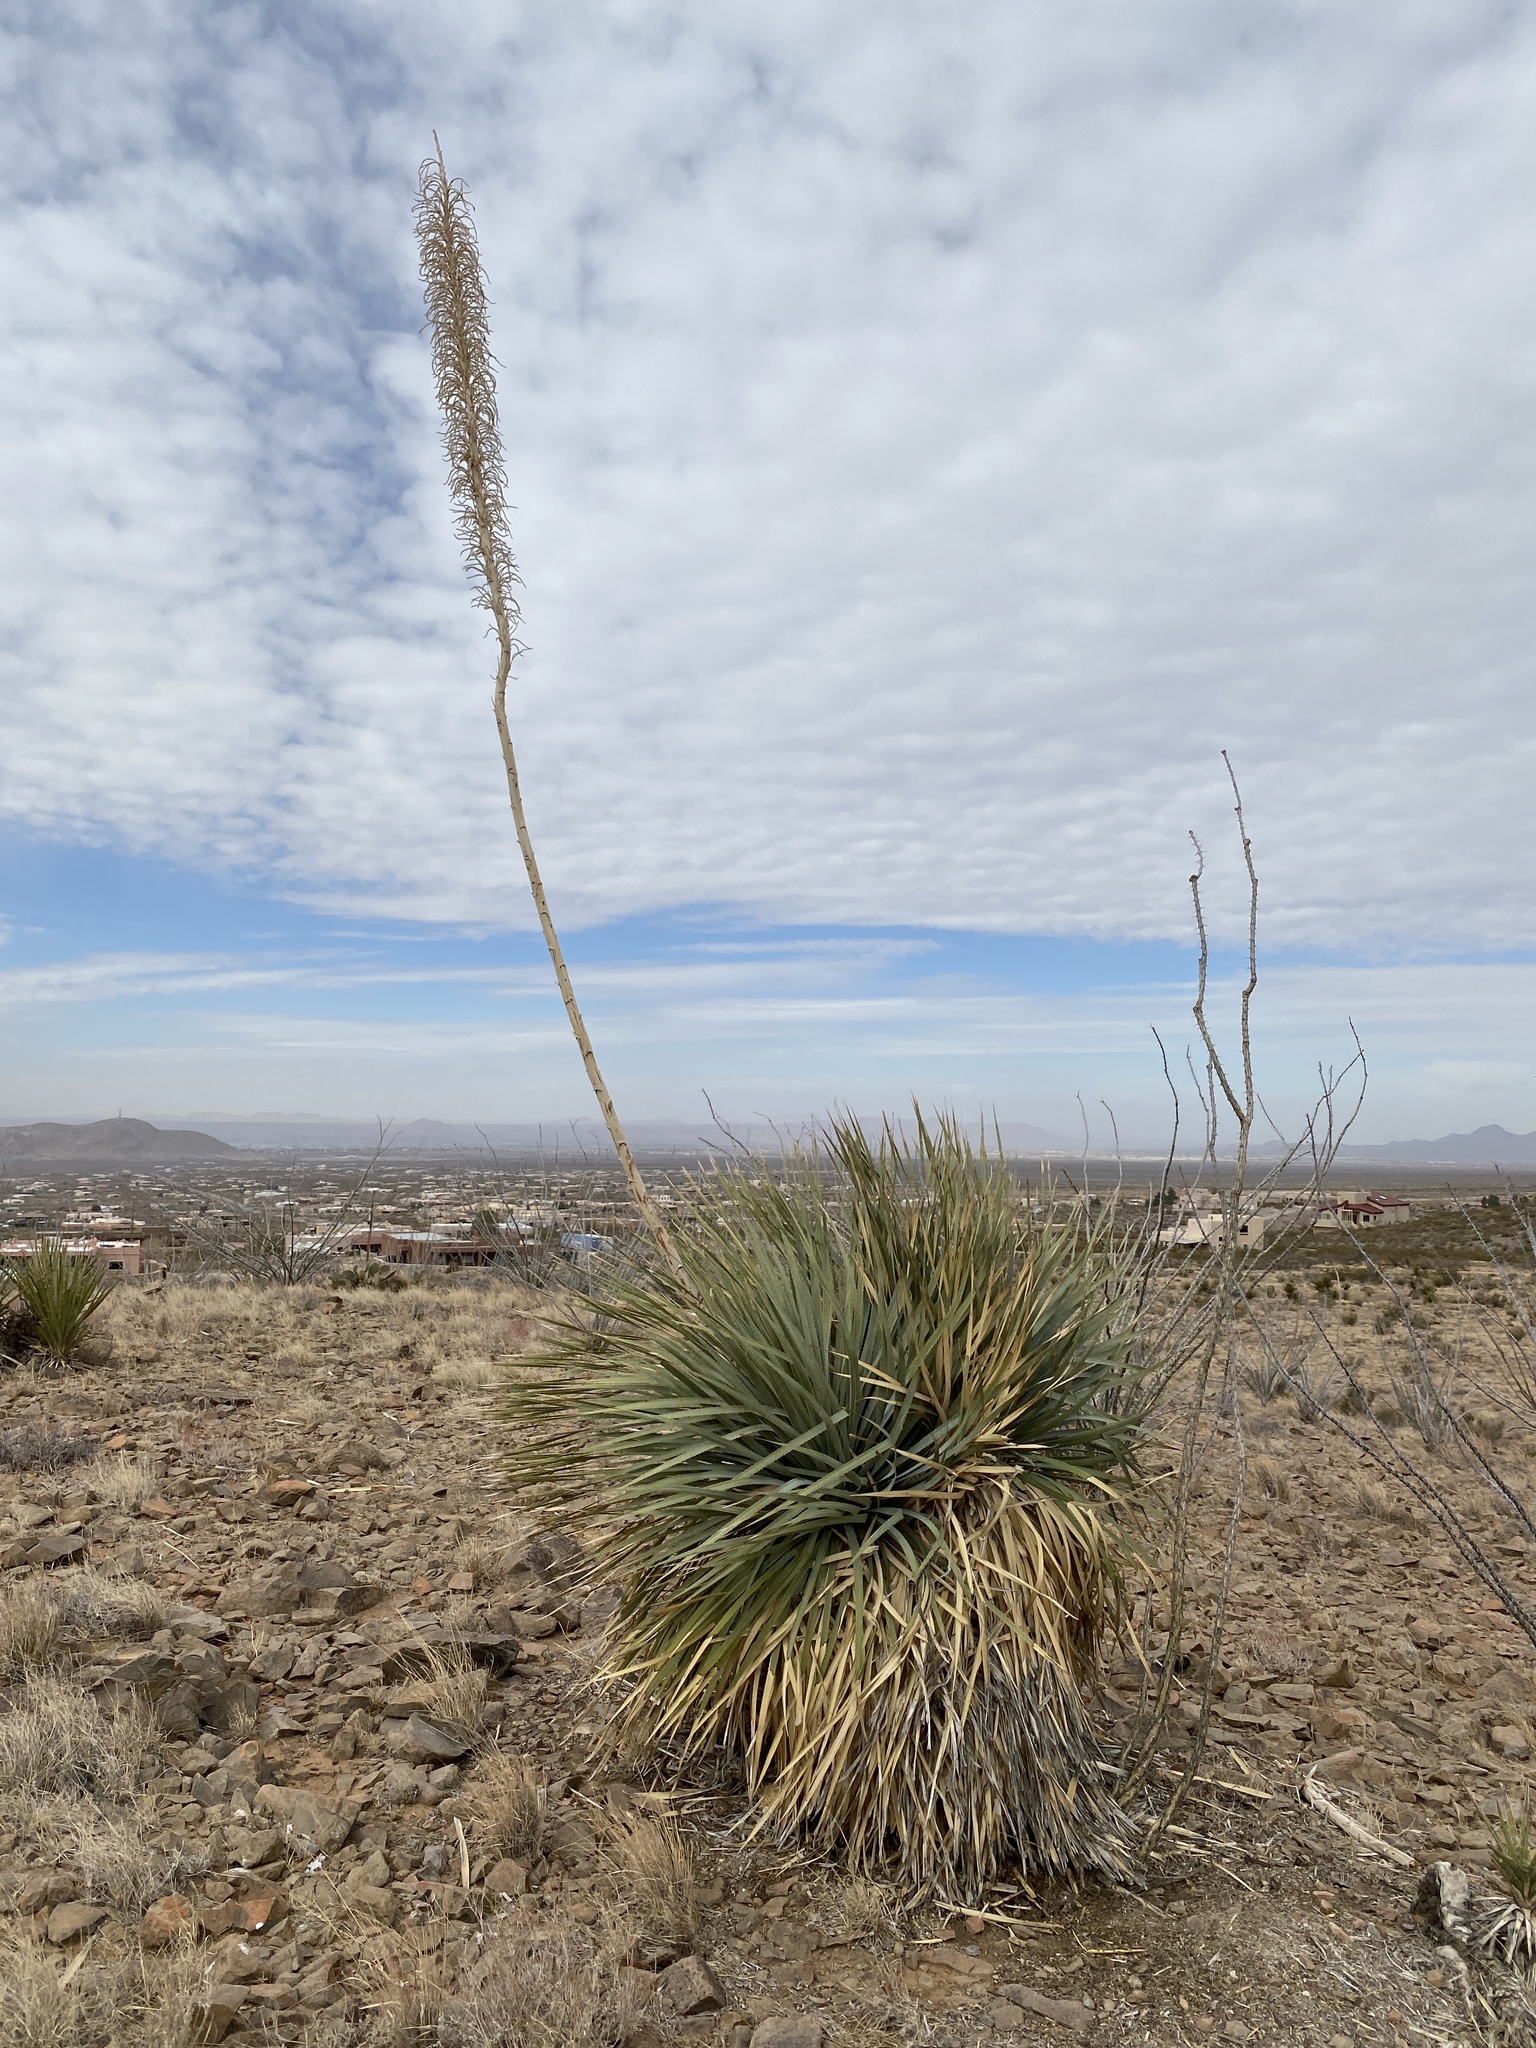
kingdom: Plantae
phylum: Tracheophyta
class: Liliopsida
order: Asparagales
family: Asparagaceae
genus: Dasylirion
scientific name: Dasylirion wheeleri
